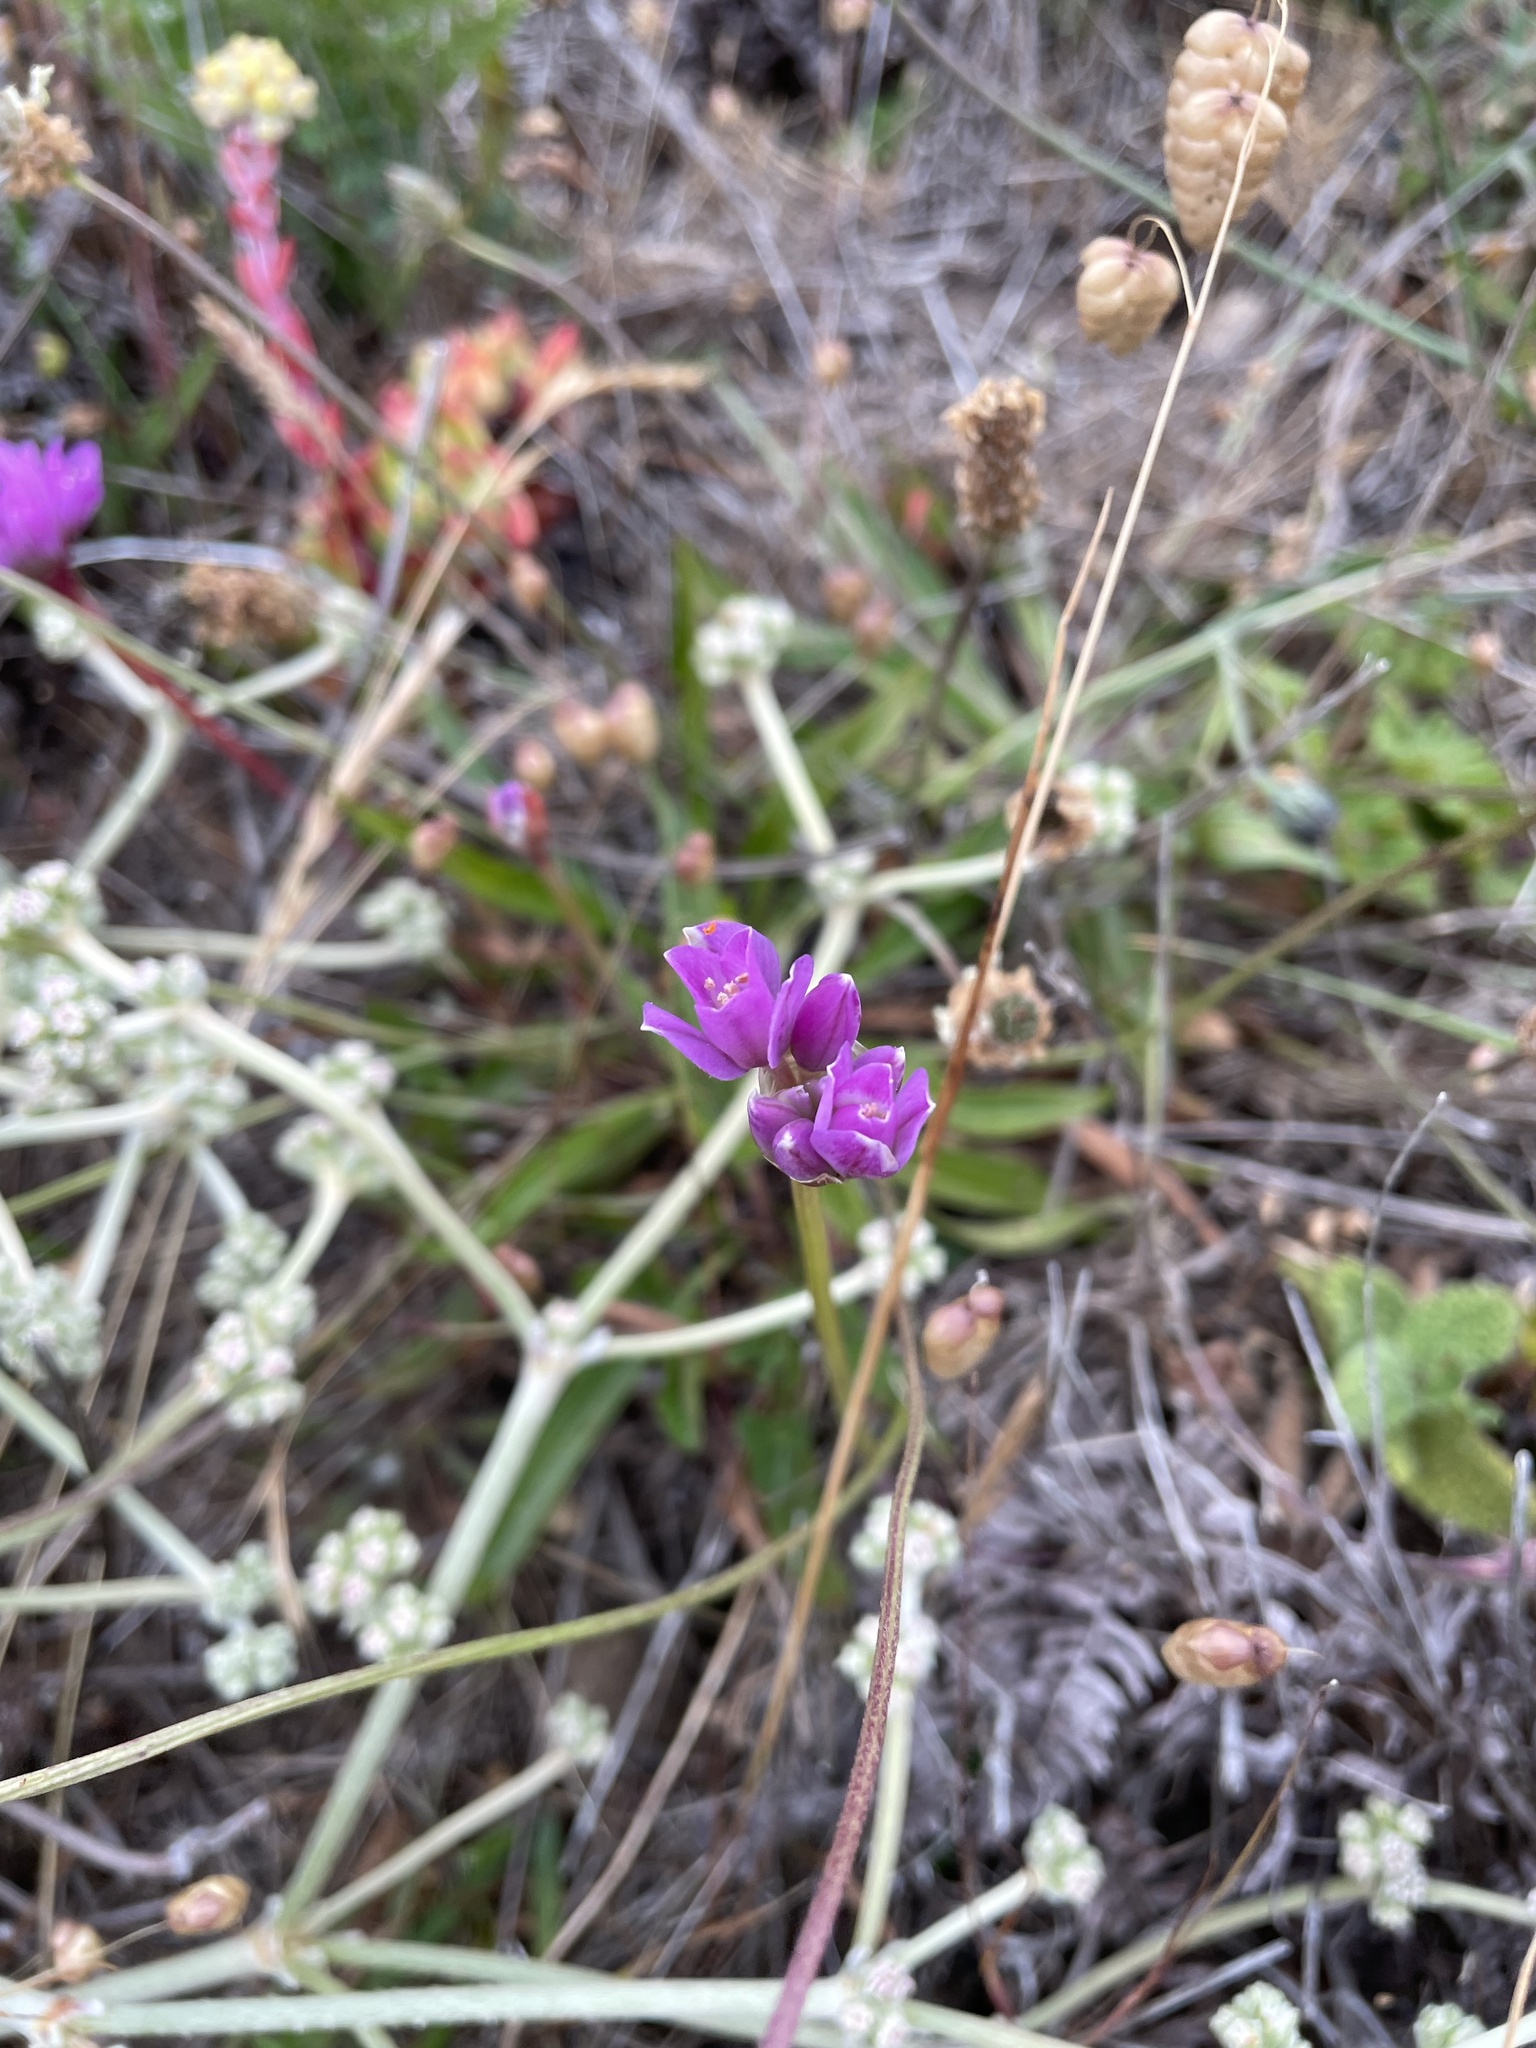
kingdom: Plantae
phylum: Tracheophyta
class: Liliopsida
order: Asparagales
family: Amaryllidaceae
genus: Allium
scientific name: Allium dichlamydeum
